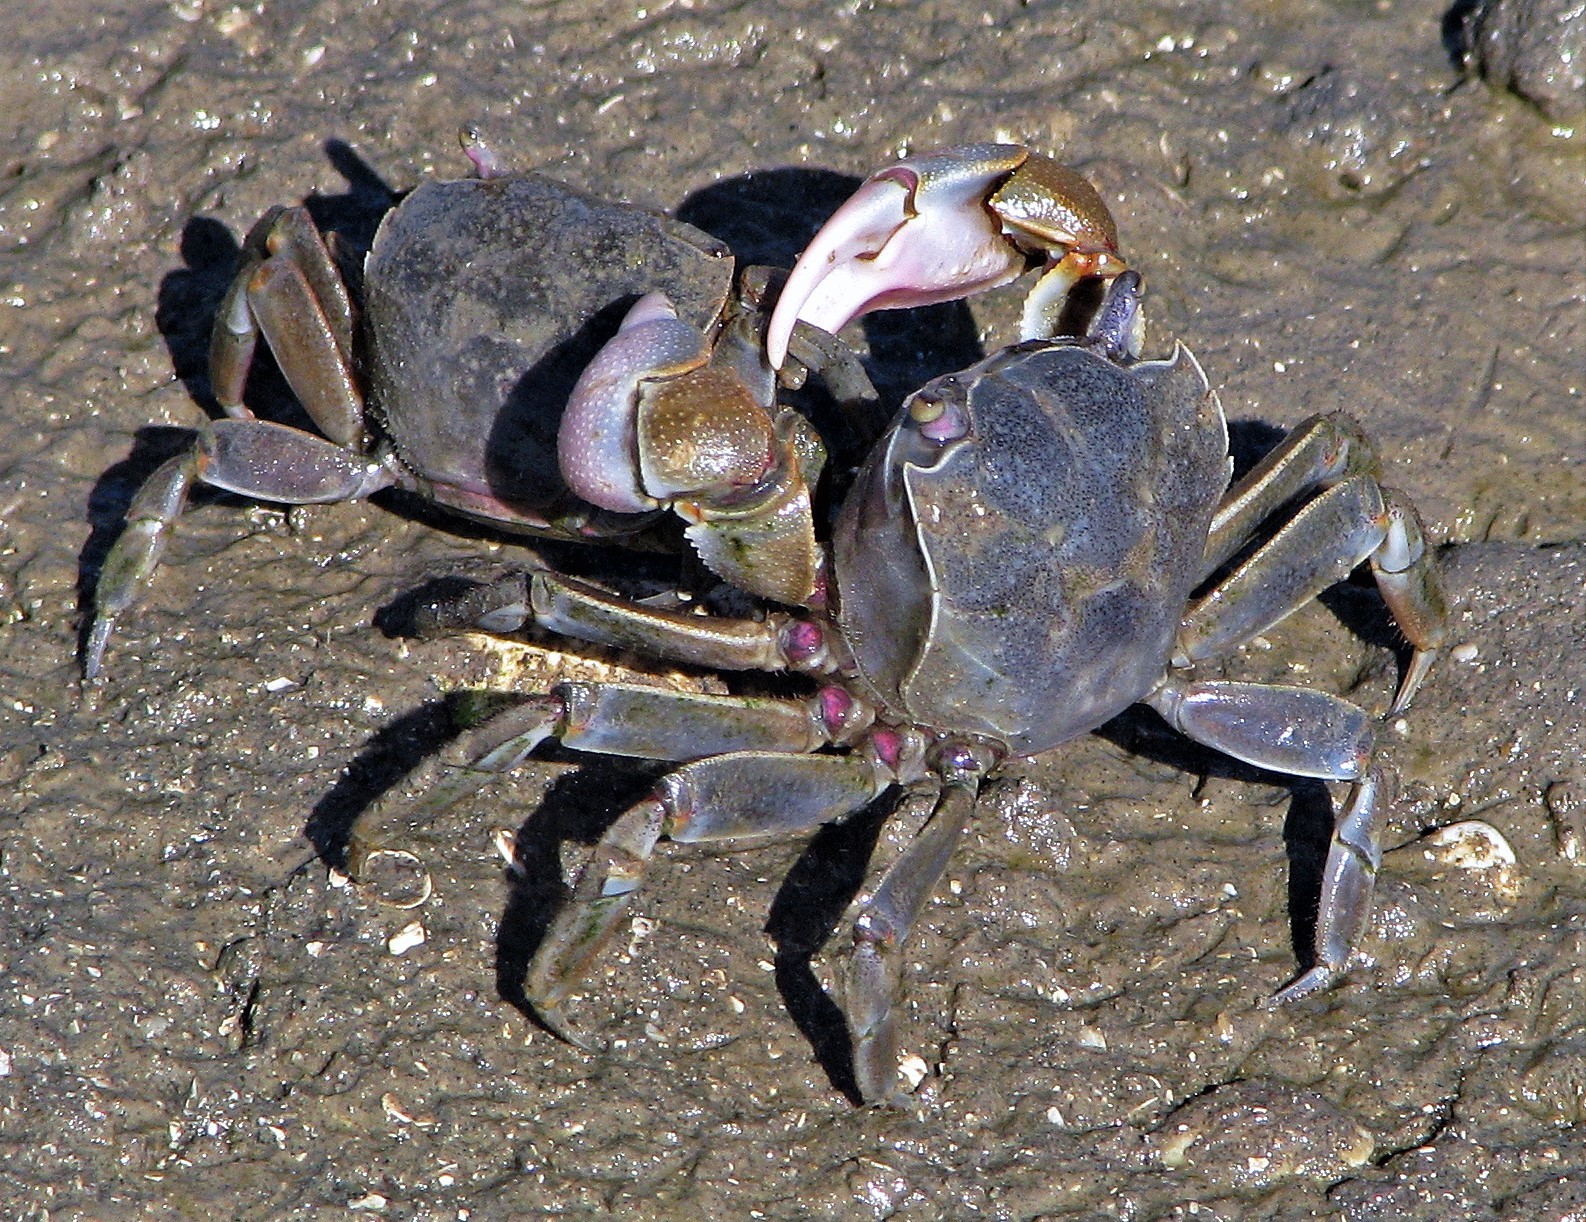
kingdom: Animalia
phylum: Arthropoda
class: Malacostraca
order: Decapoda
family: Varunidae
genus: Neohelice
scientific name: Neohelice granulata
